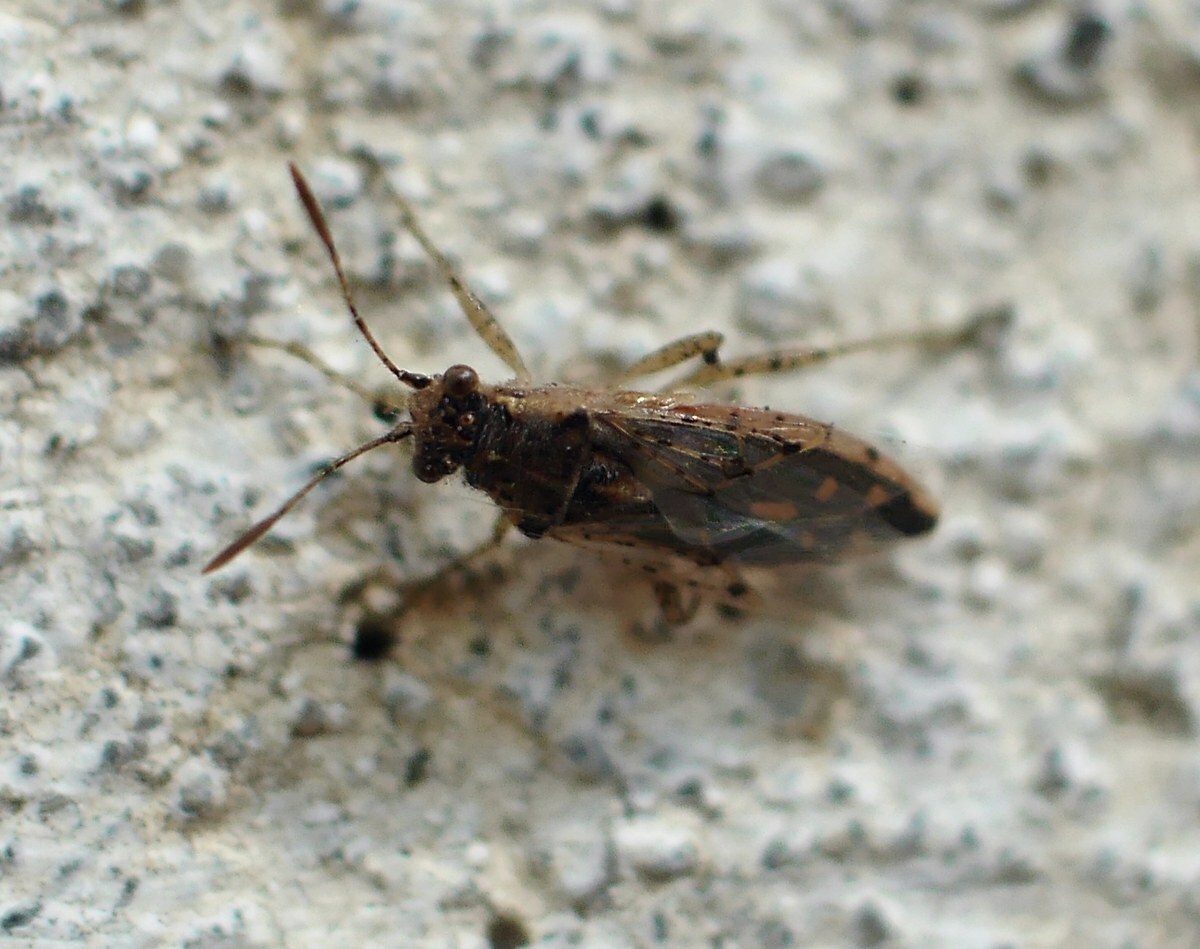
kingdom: Animalia
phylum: Arthropoda
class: Insecta
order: Hemiptera
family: Rhopalidae
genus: Brachycarenus
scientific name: Brachycarenus tigrinus
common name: Scentless plant bug
